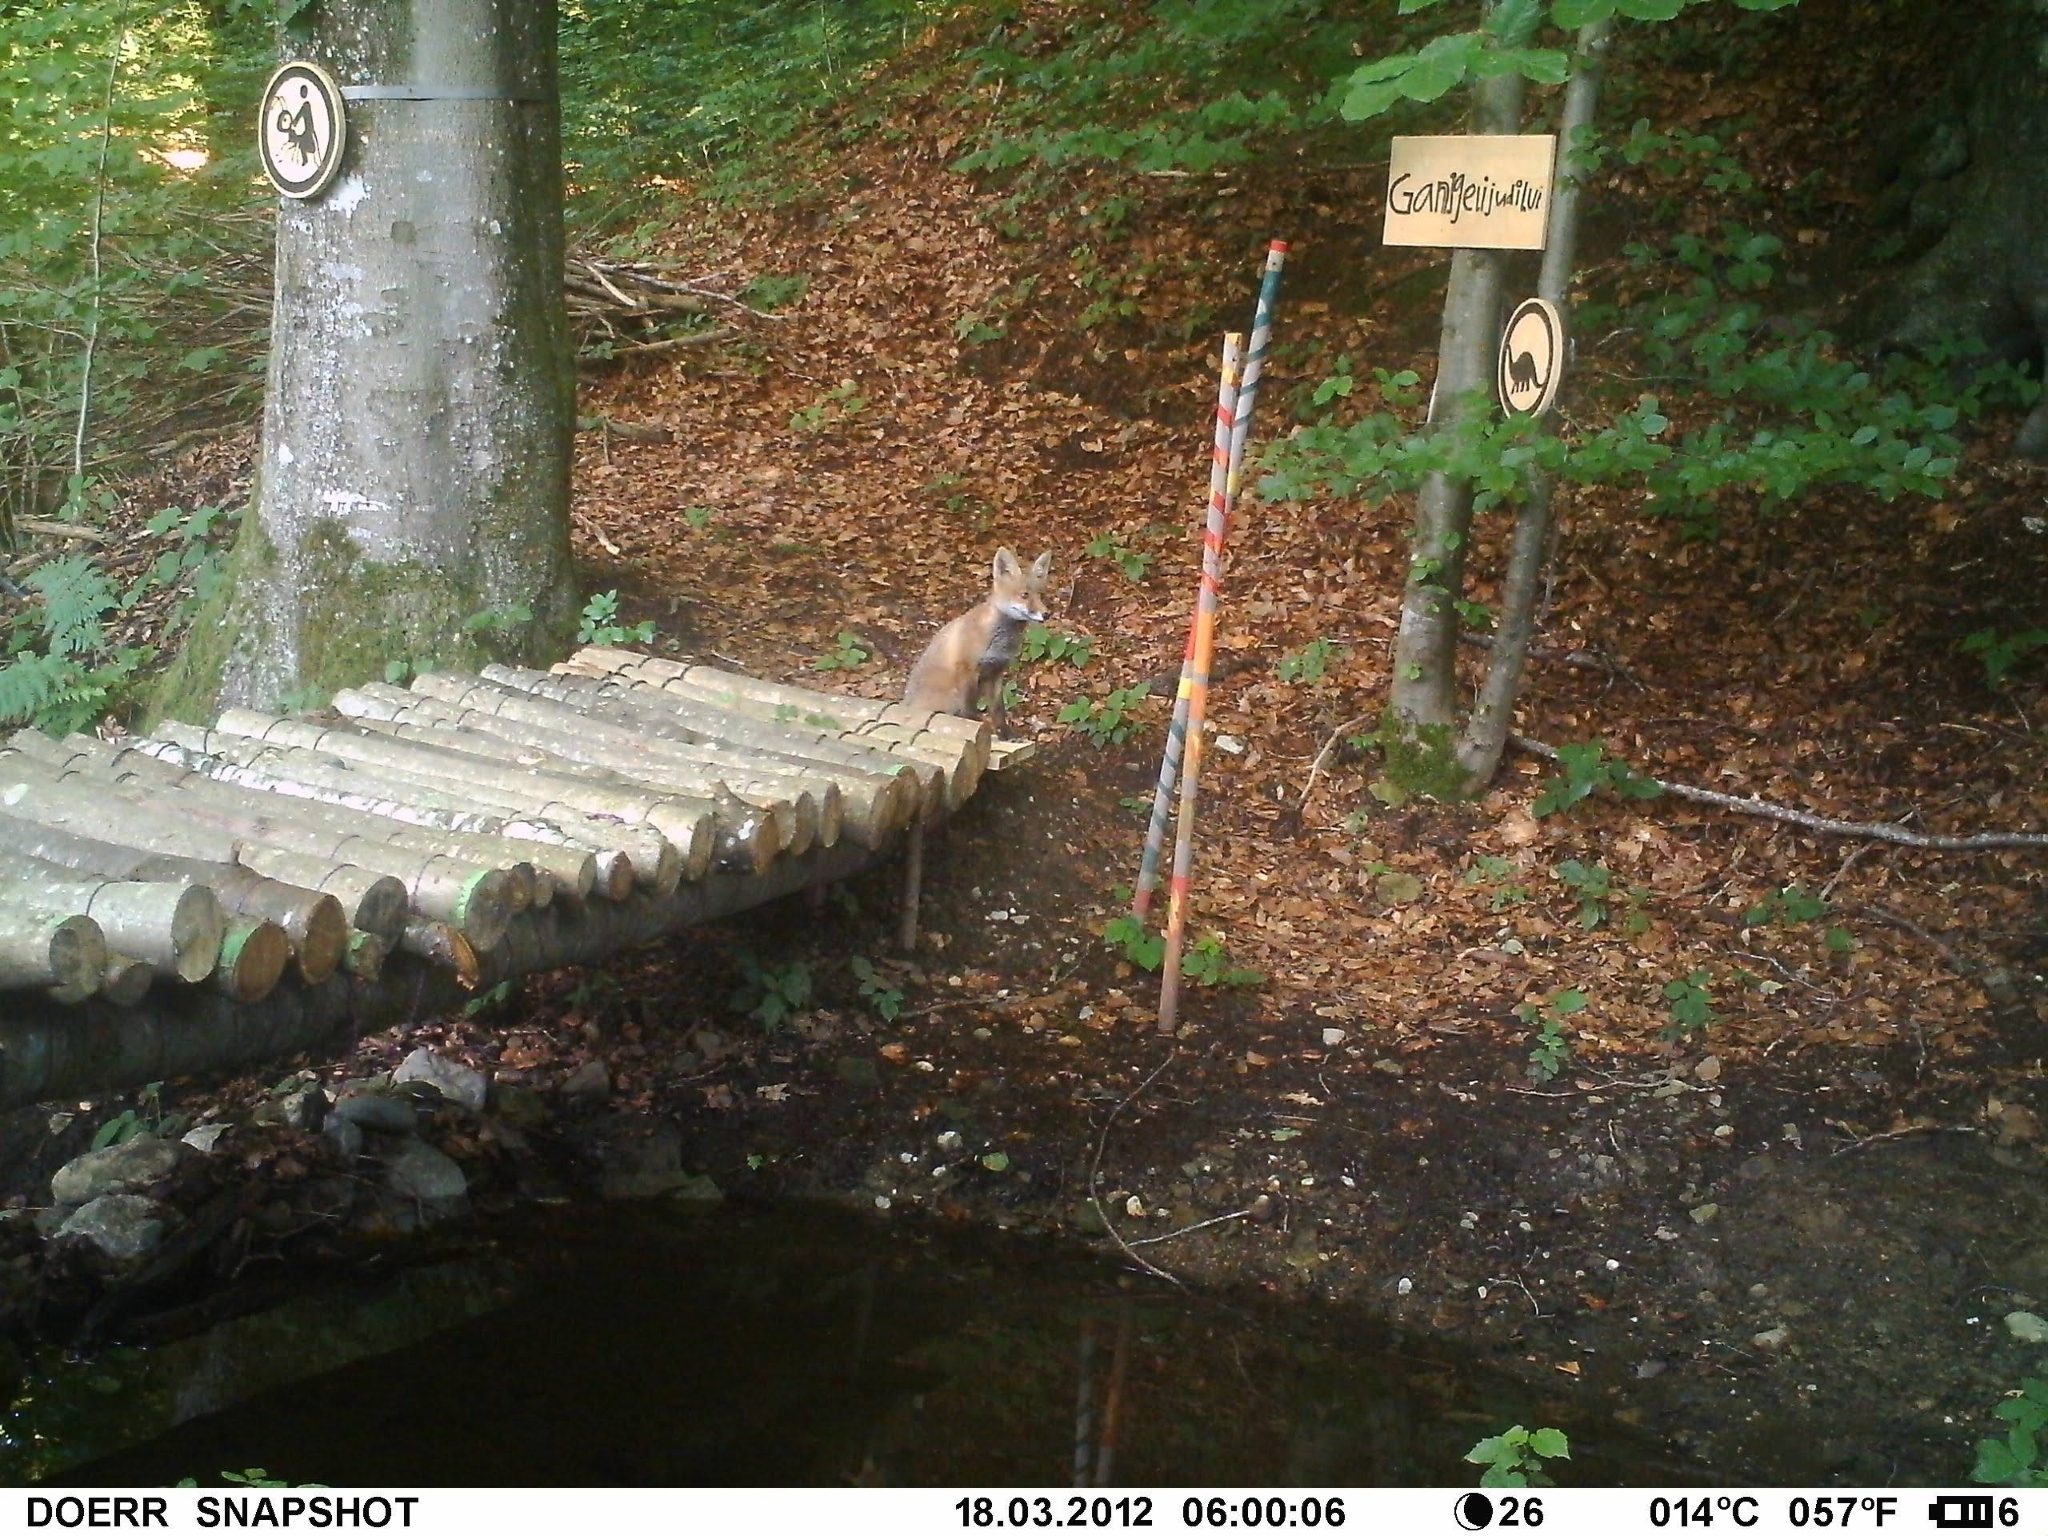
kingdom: Animalia
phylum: Chordata
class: Mammalia
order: Artiodactyla
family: Cervidae
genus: Capreolus
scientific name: Capreolus capreolus
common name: Western roe deer
